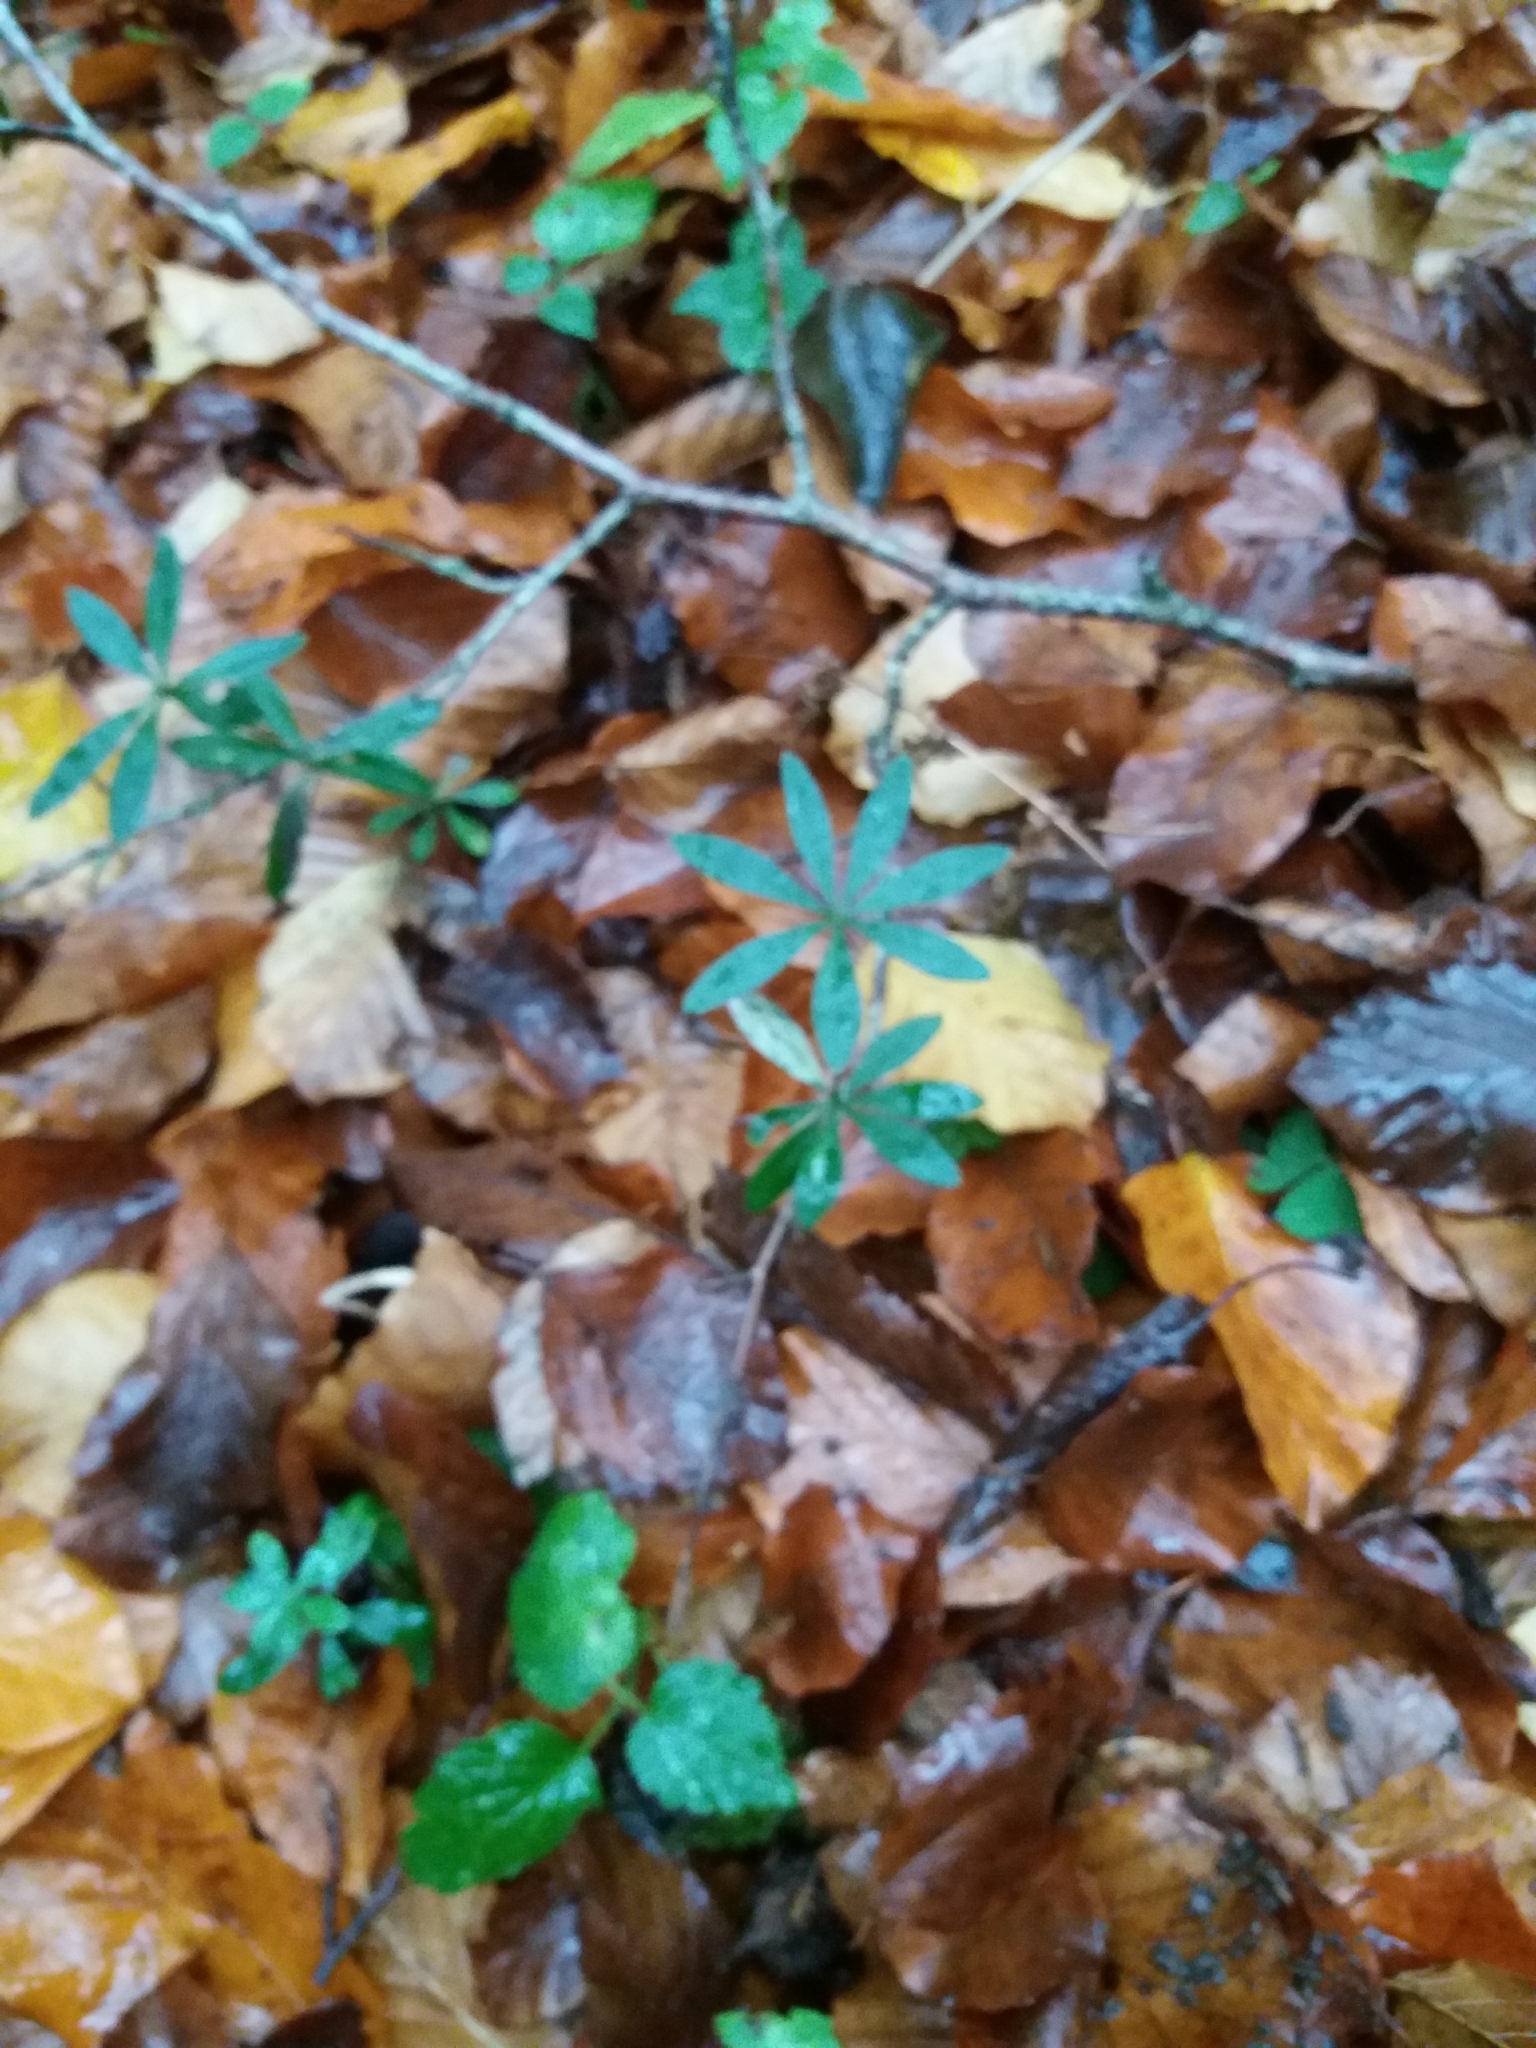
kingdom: Plantae
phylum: Tracheophyta
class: Magnoliopsida
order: Gentianales
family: Rubiaceae
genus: Galium
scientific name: Galium odoratum
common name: Sweet woodruff
